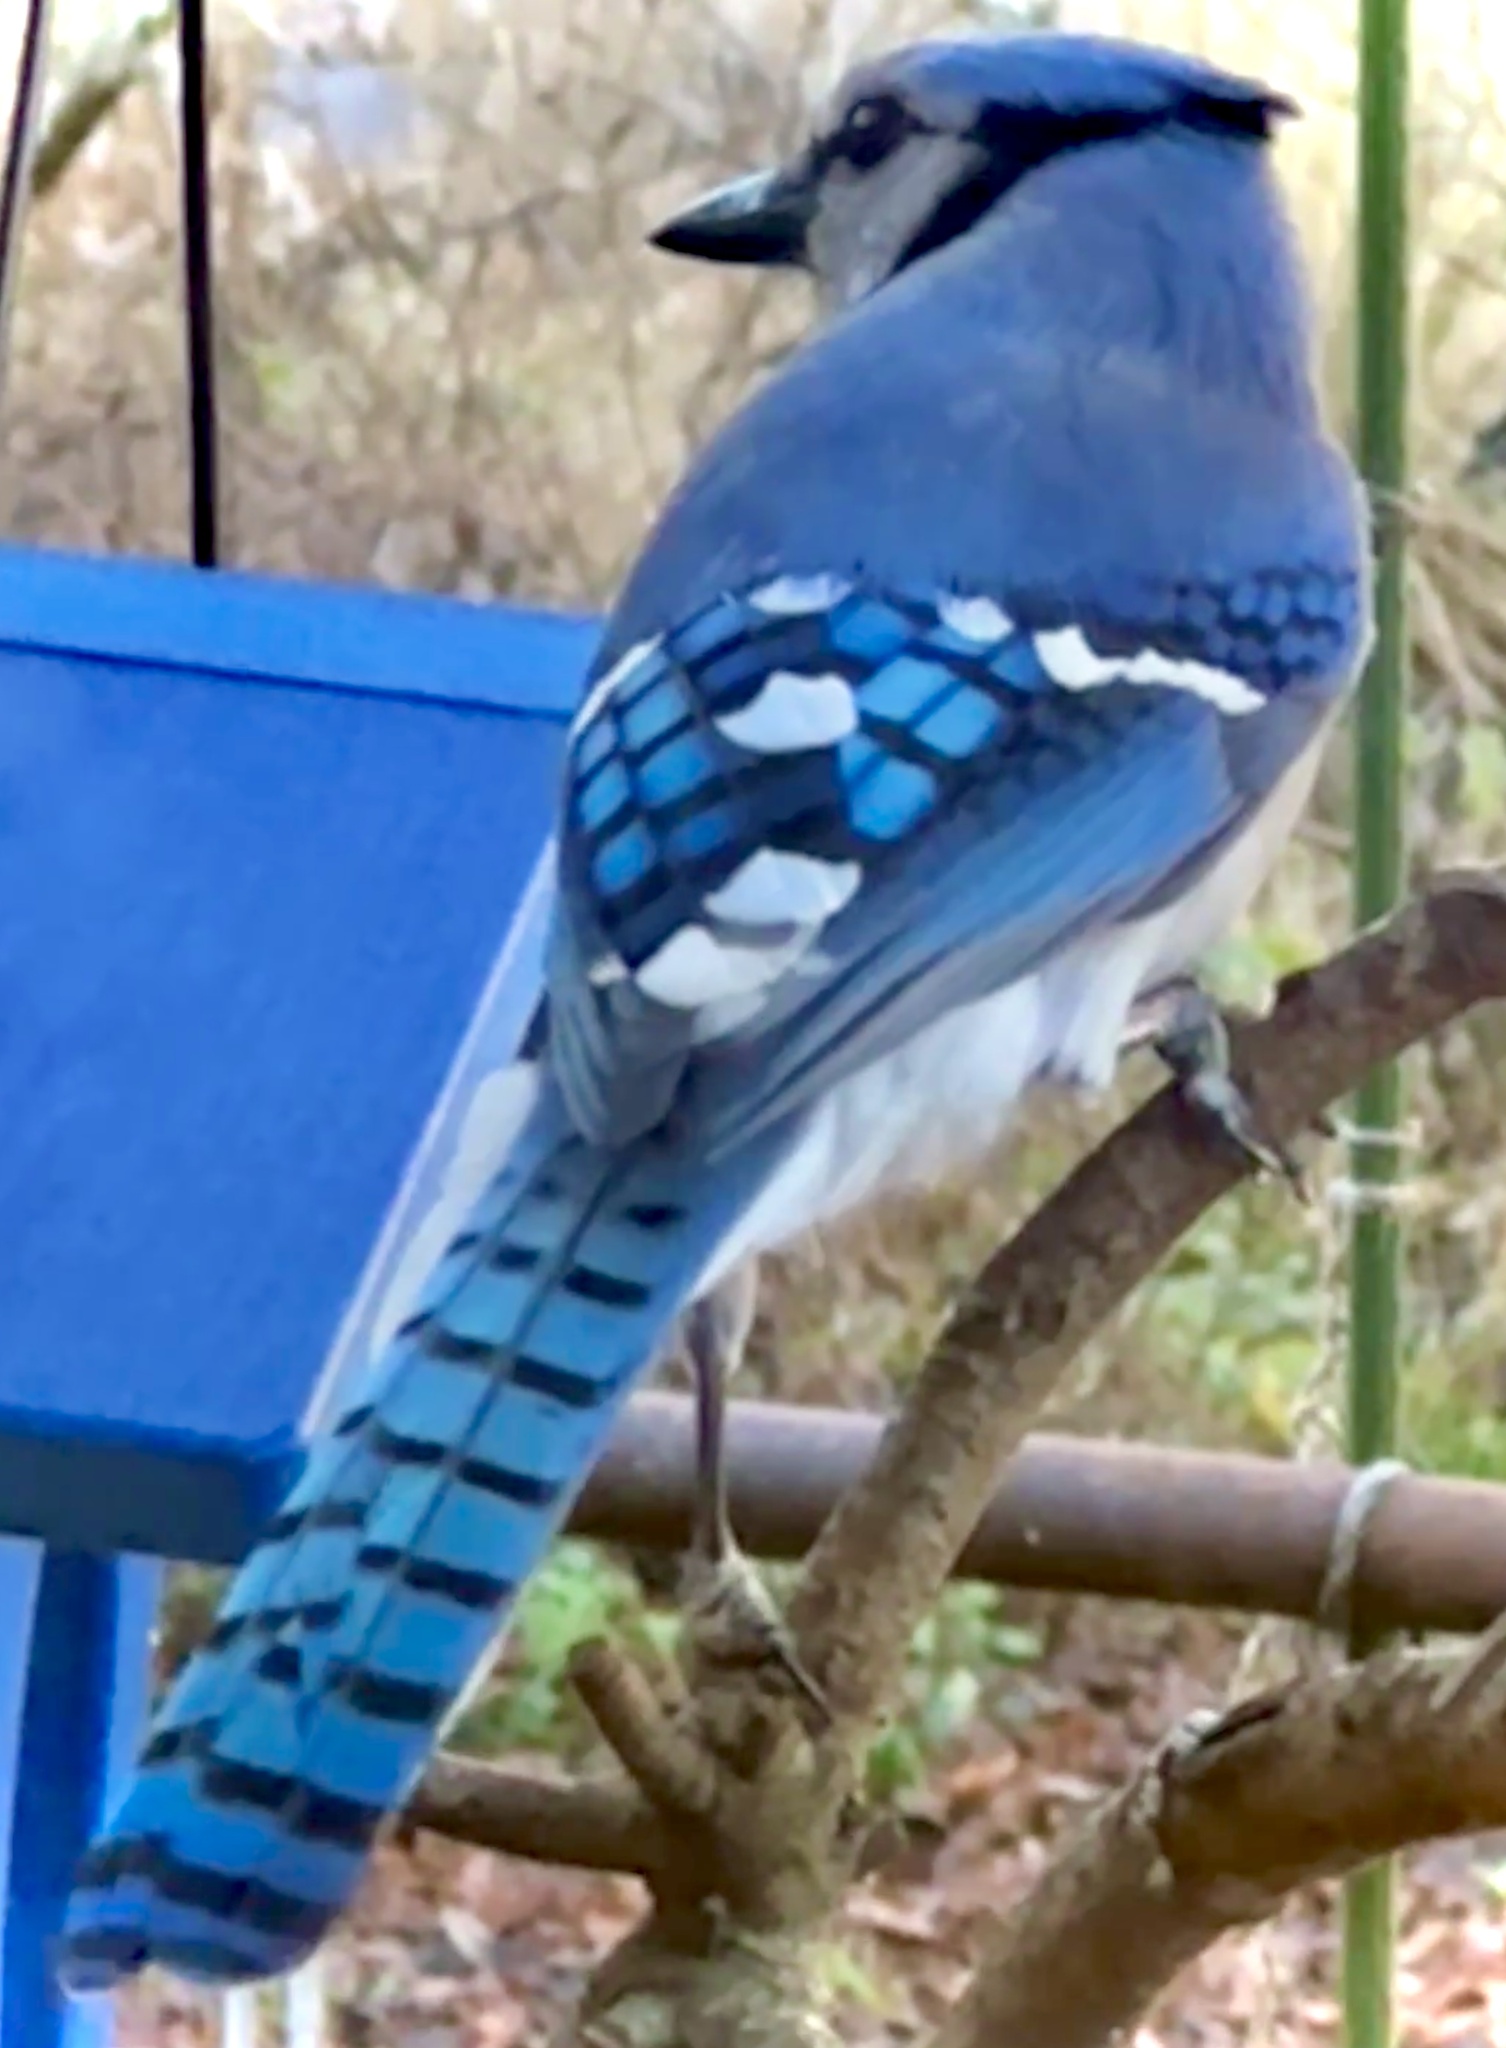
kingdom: Animalia
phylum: Chordata
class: Aves
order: Passeriformes
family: Corvidae
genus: Cyanocitta
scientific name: Cyanocitta cristata
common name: Blue jay
